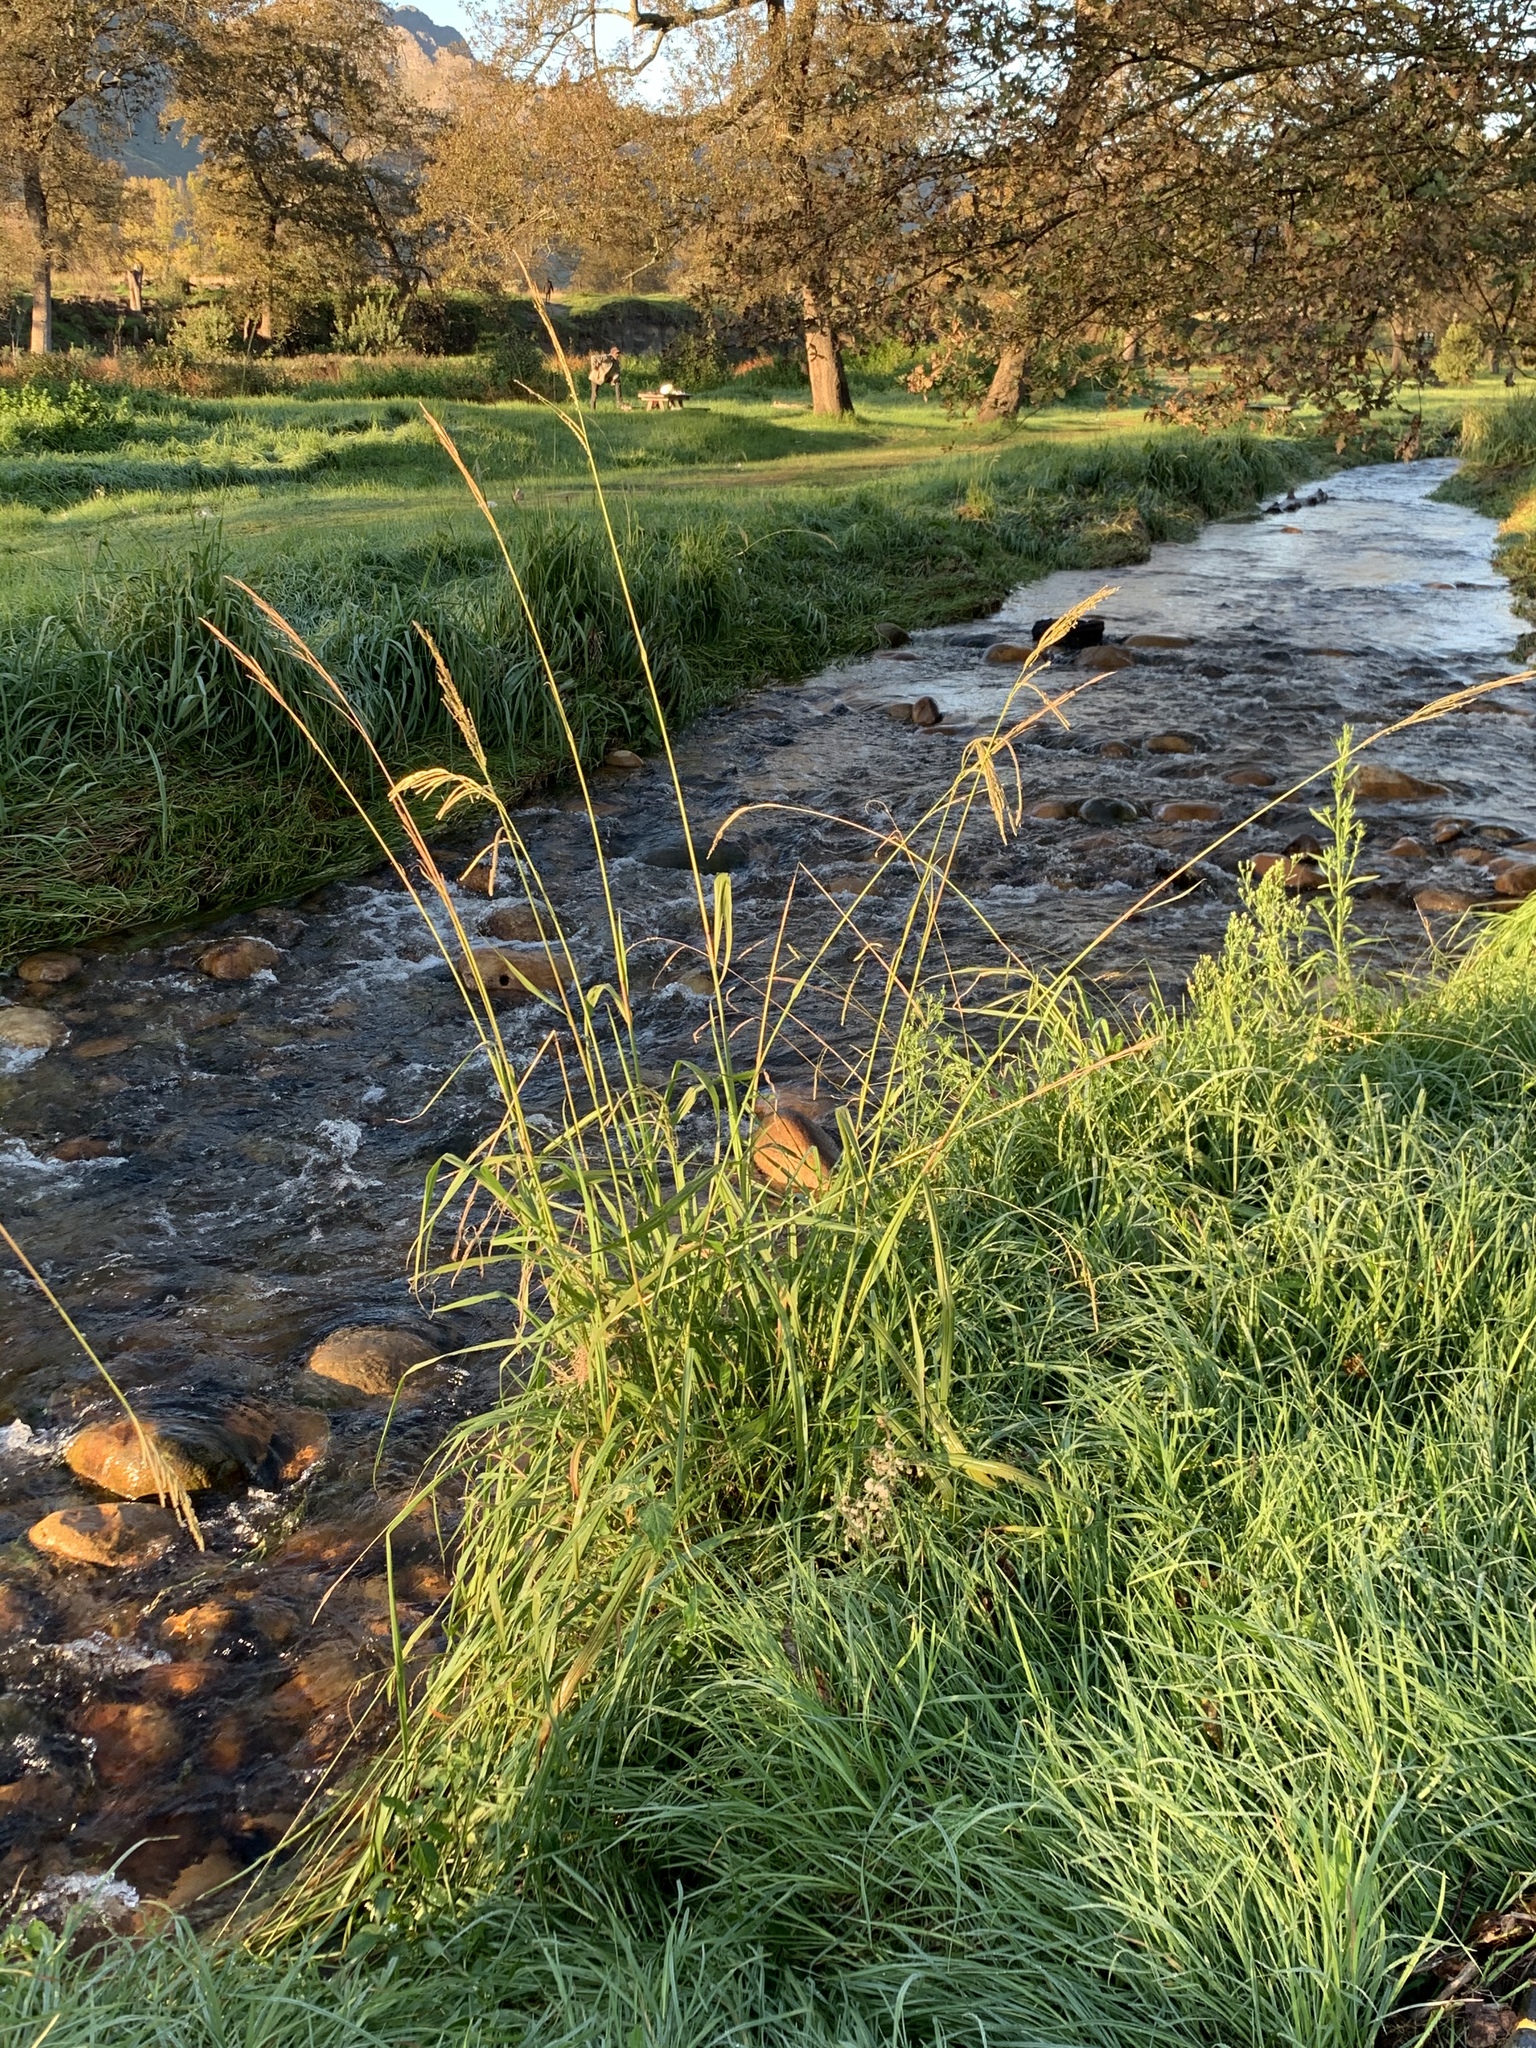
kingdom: Plantae
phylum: Tracheophyta
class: Liliopsida
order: Poales
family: Poaceae
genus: Paspalum
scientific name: Paspalum urvillei
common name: Vasey's grass
